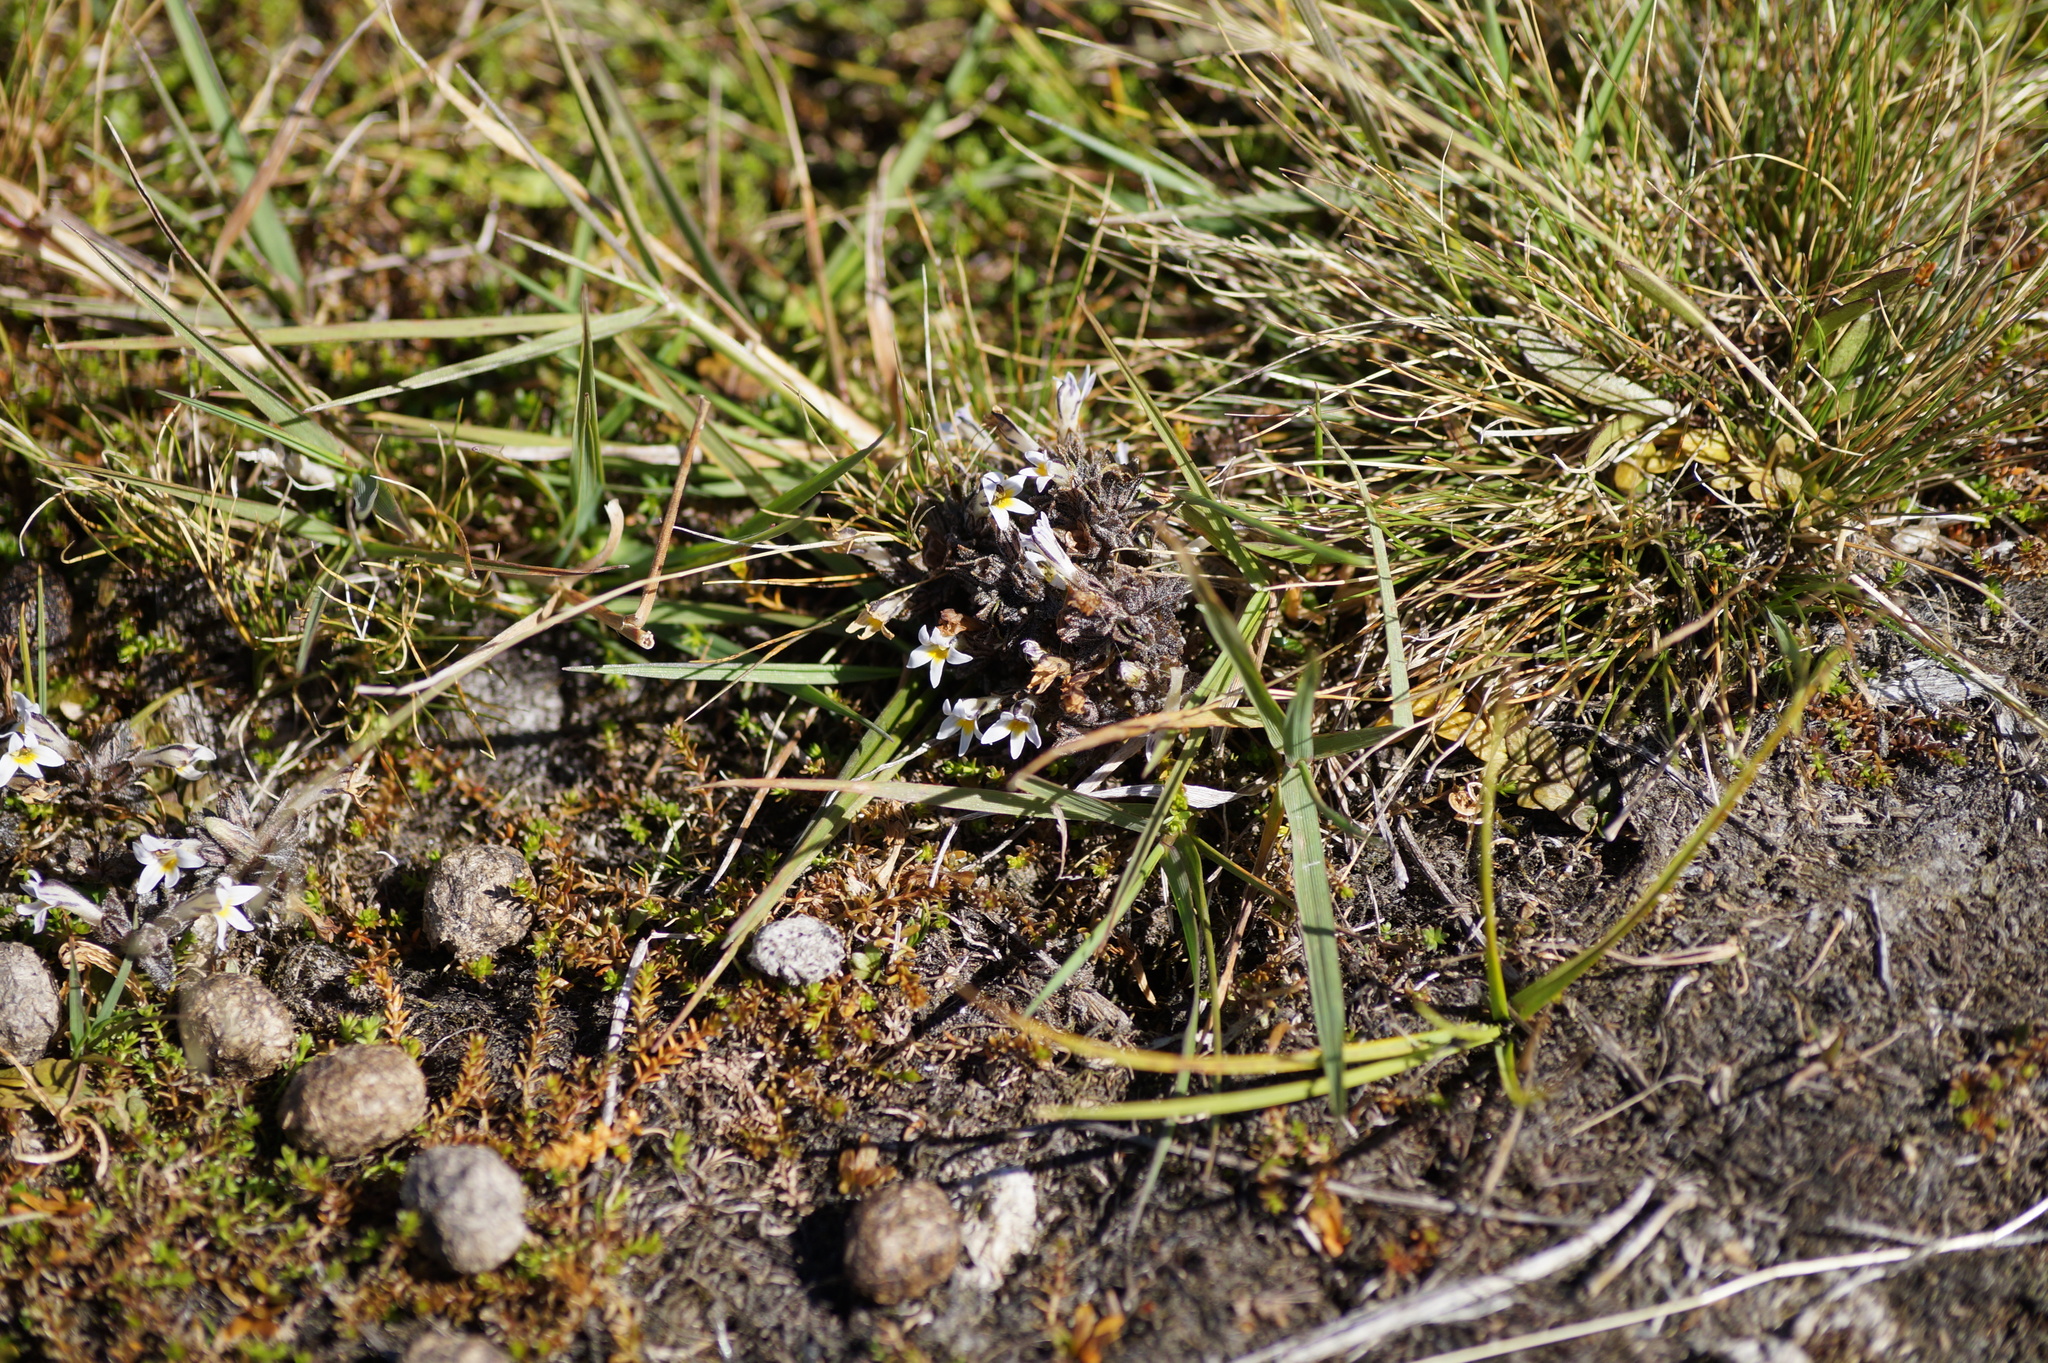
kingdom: Plantae
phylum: Tracheophyta
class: Magnoliopsida
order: Lamiales
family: Orobanchaceae
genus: Euphrasia
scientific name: Euphrasia zelandica
